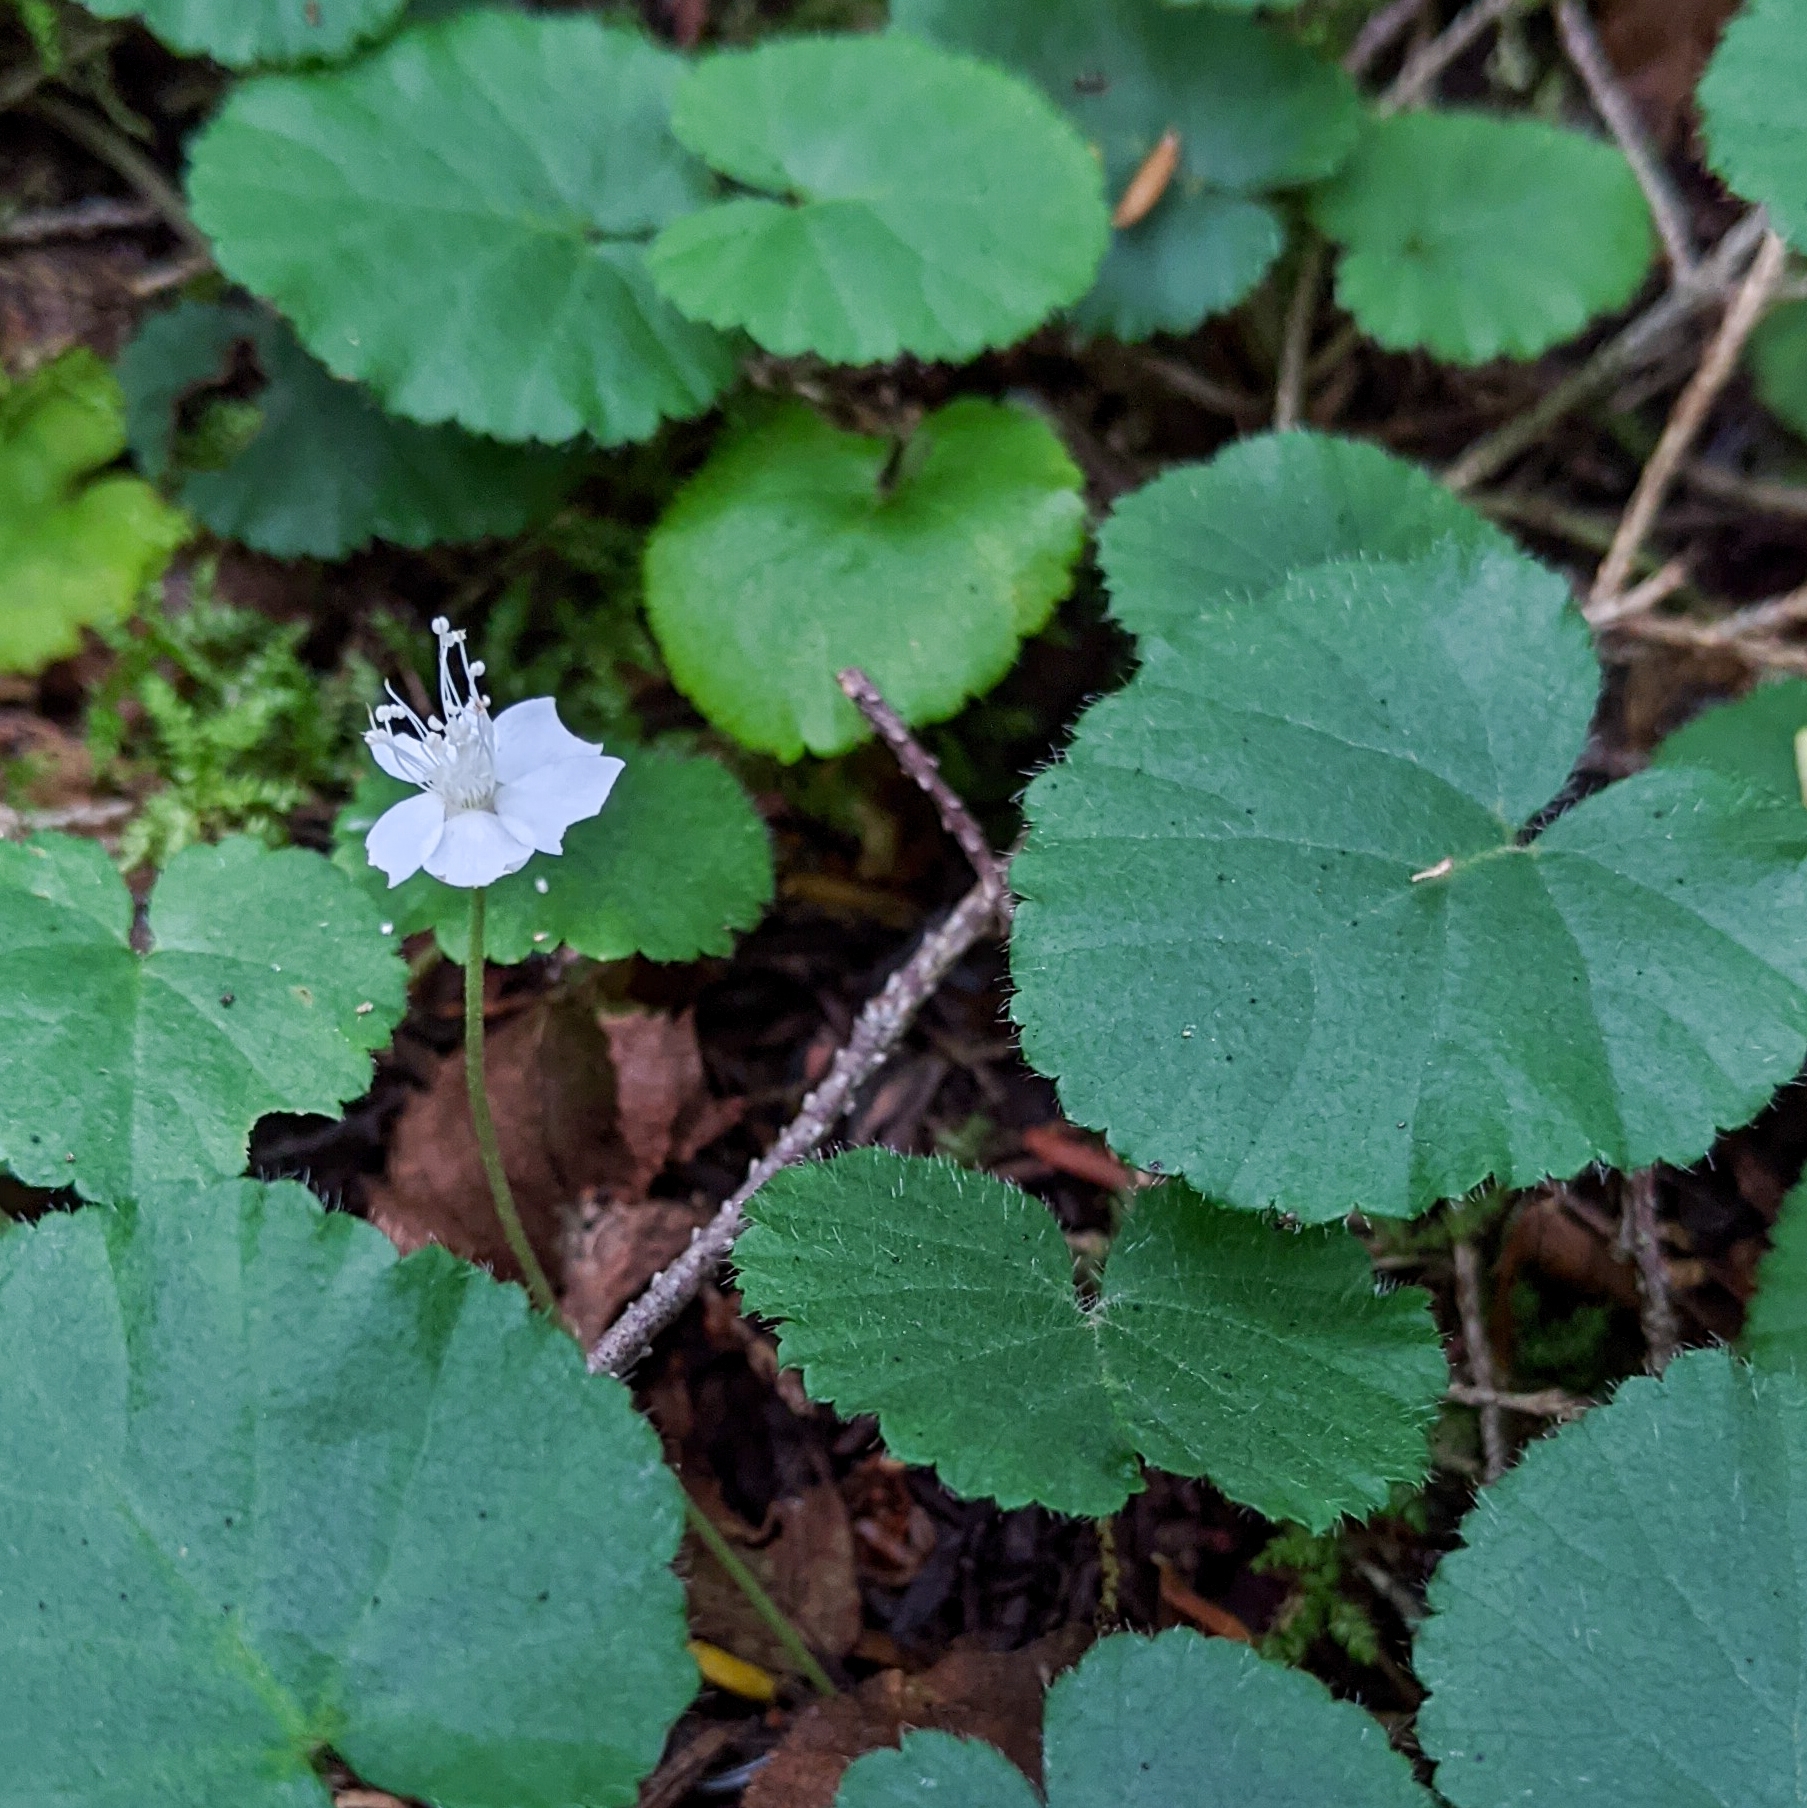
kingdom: Plantae
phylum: Tracheophyta
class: Magnoliopsida
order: Rosales
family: Rosaceae
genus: Dalibarda
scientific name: Dalibarda repens
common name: Dewdrop
